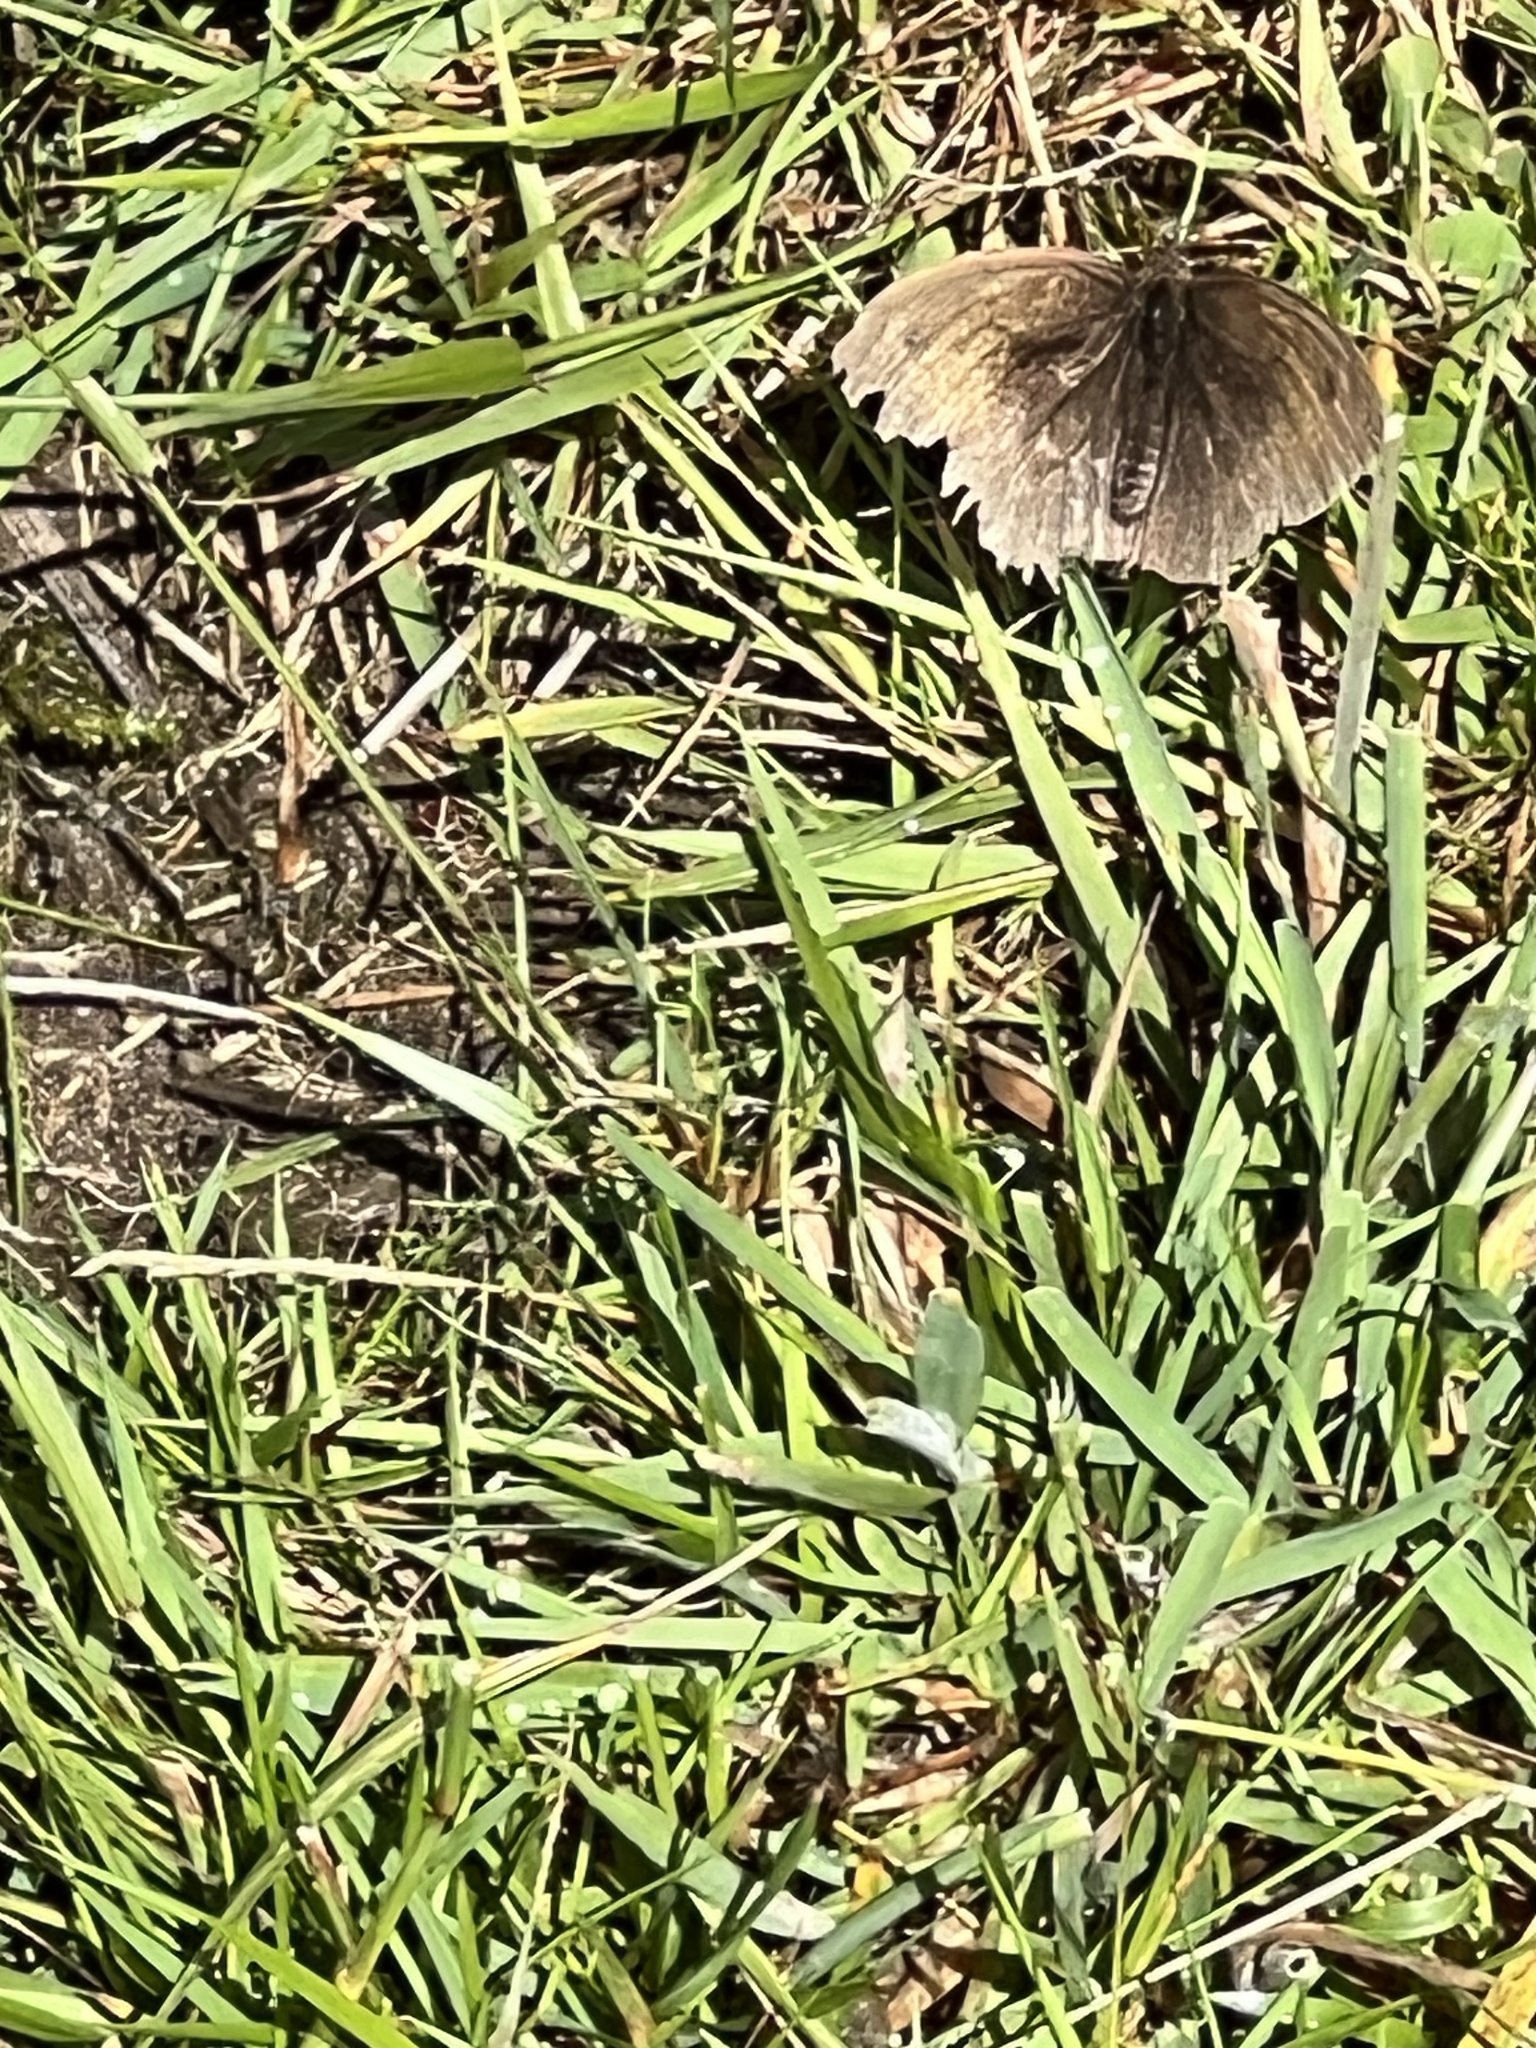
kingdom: Animalia
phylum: Arthropoda
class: Insecta
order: Lepidoptera
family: Nymphalidae
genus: Maniola
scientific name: Maniola jurtina
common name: Meadow brown
